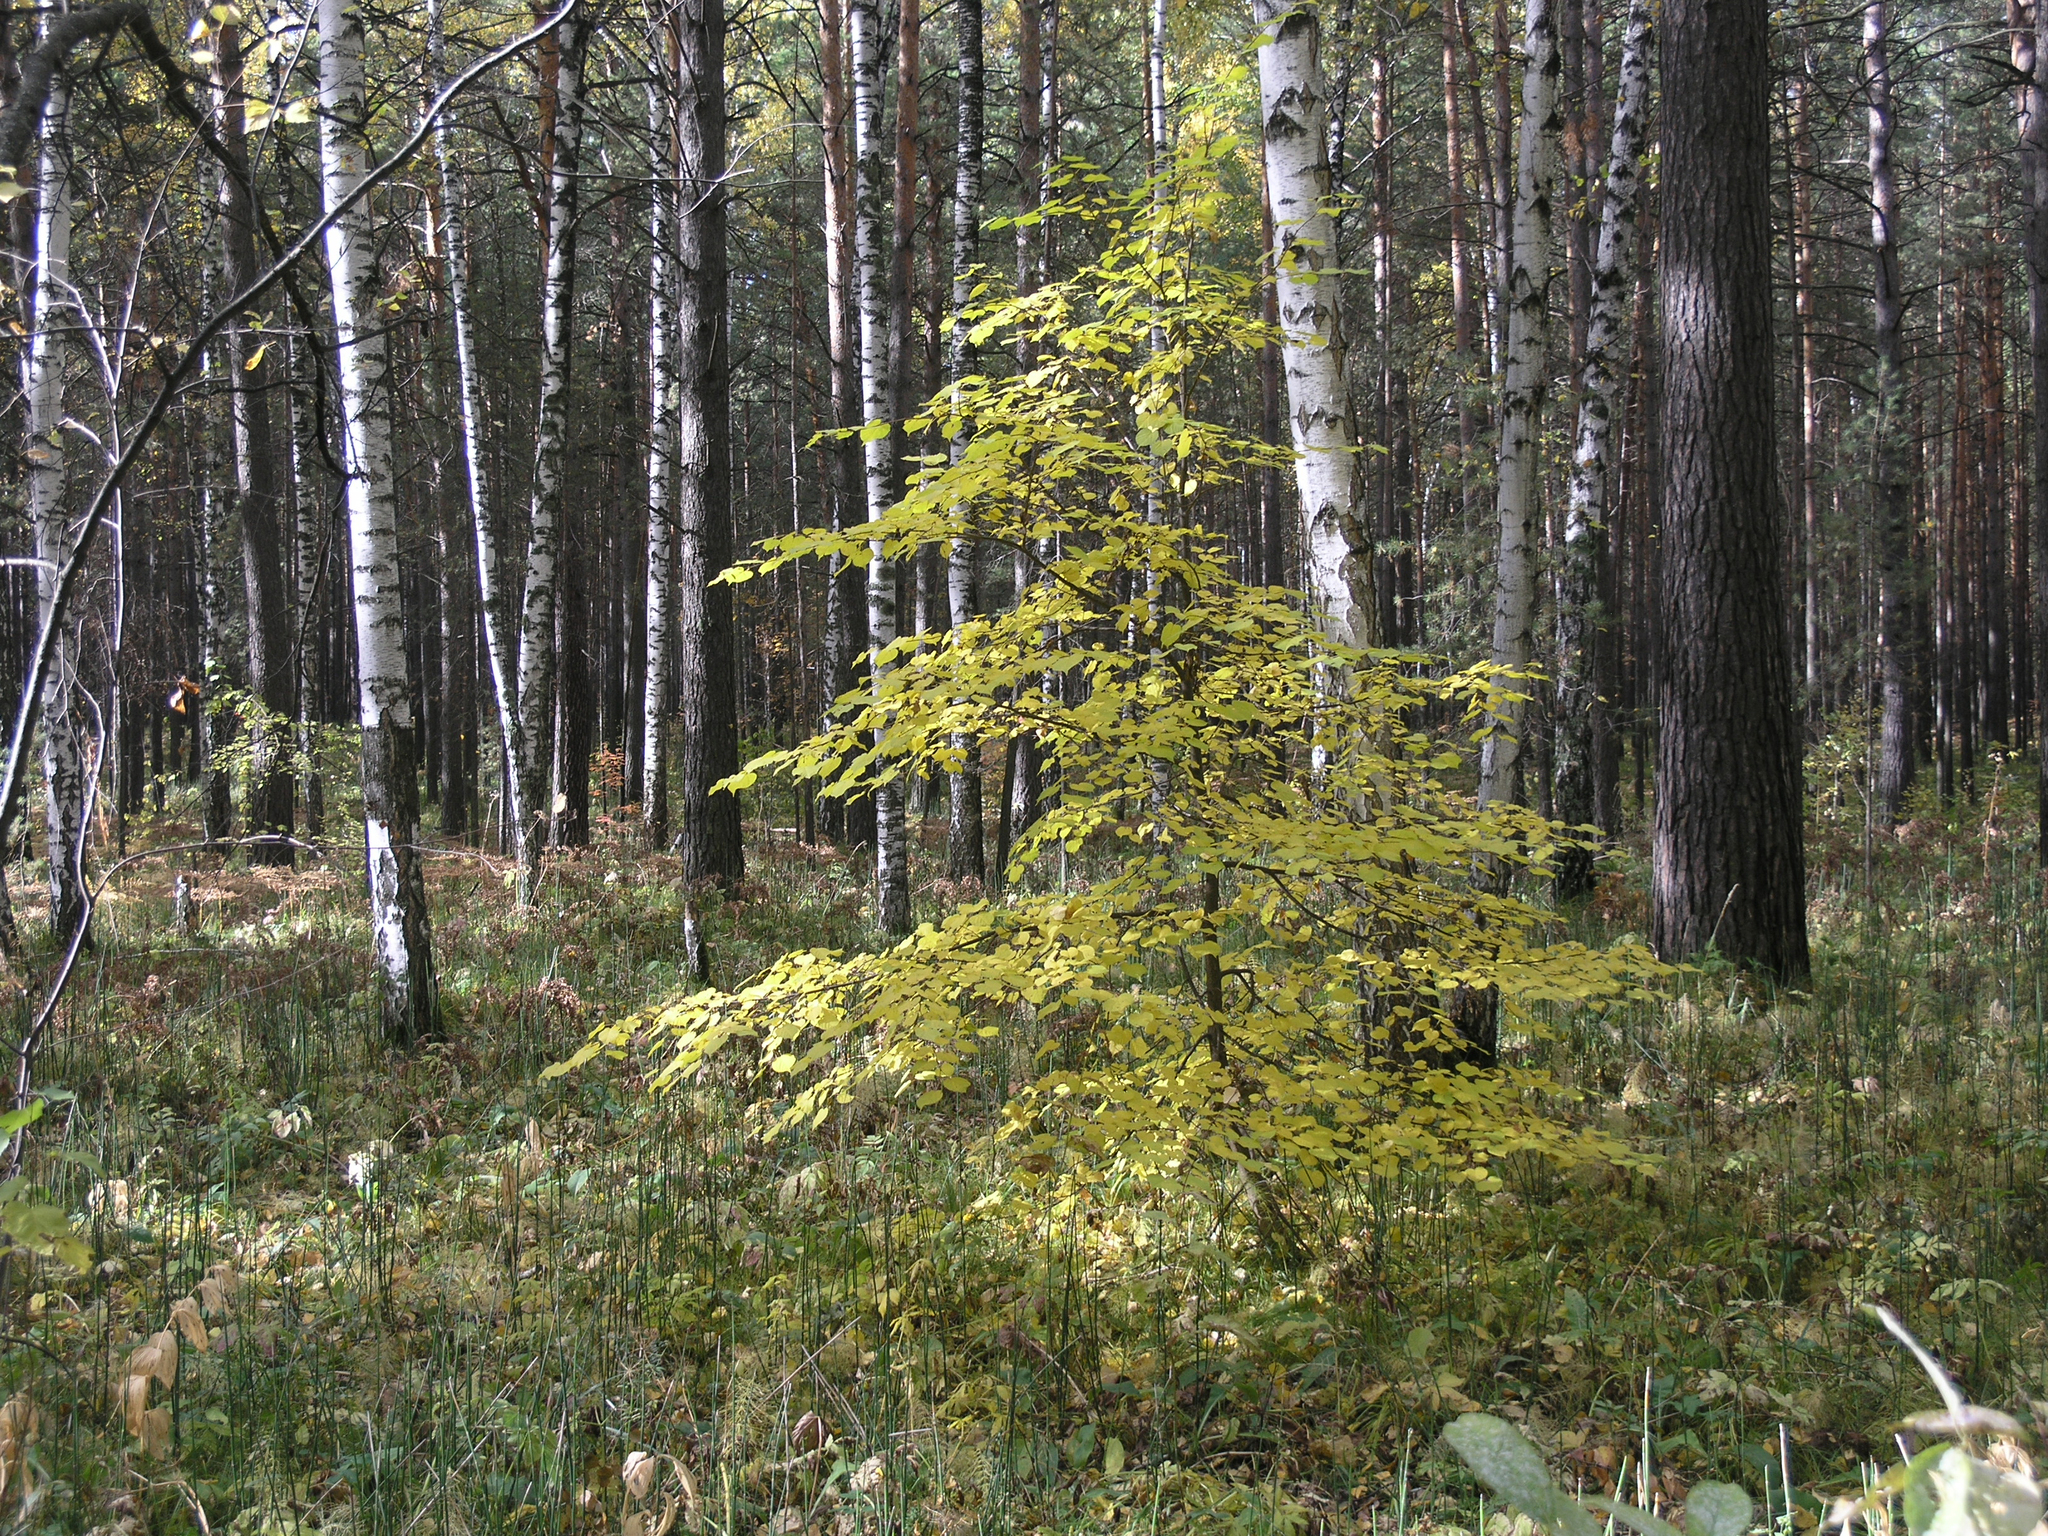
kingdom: Plantae
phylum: Tracheophyta
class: Magnoliopsida
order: Malvales
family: Malvaceae
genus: Tilia
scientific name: Tilia cordata
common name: Small-leaved lime
